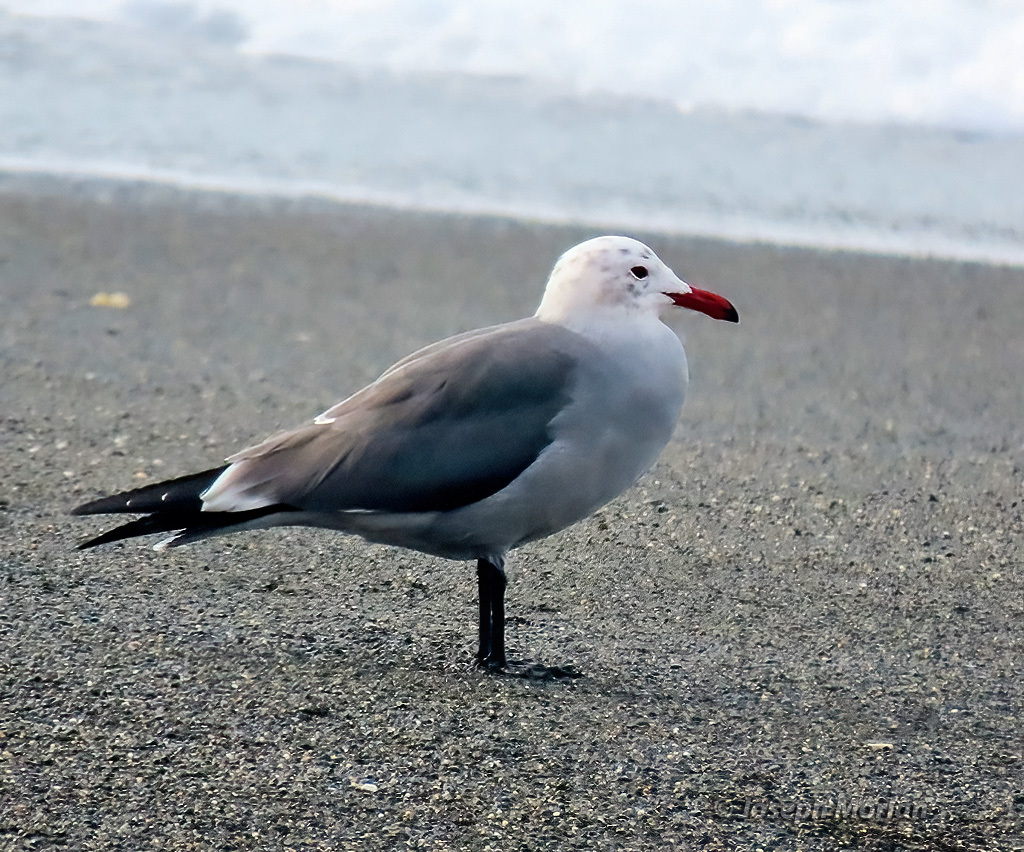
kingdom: Animalia
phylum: Chordata
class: Aves
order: Charadriiformes
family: Laridae
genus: Larus
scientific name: Larus heermanni
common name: Heermann's gull
